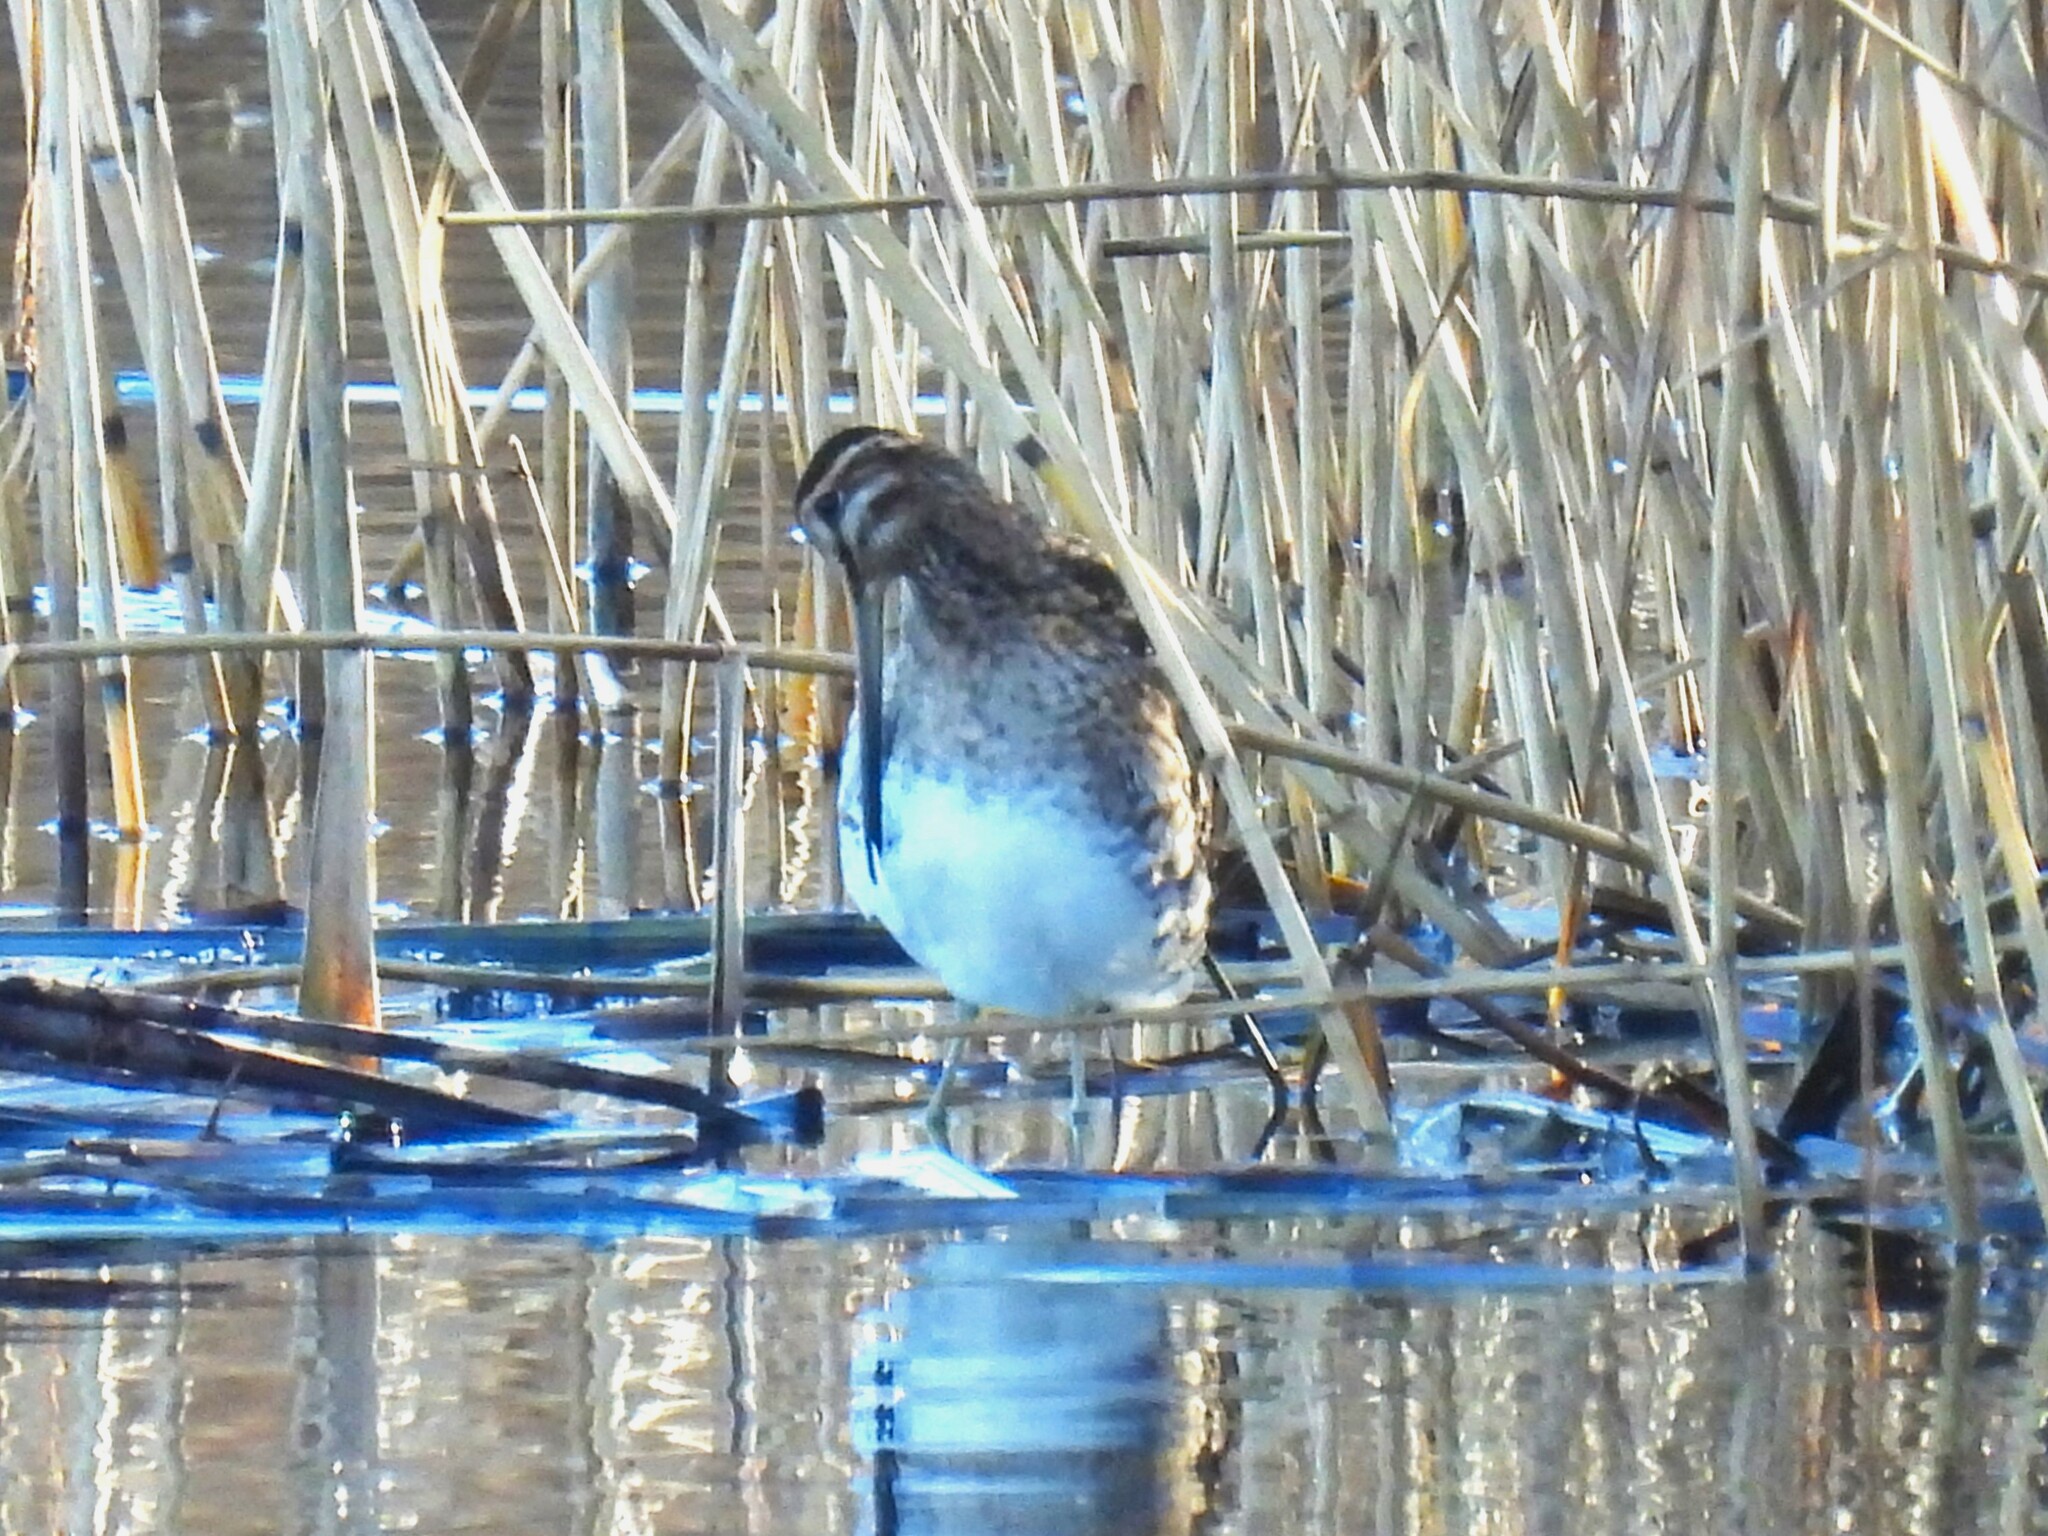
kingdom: Animalia
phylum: Chordata
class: Aves
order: Charadriiformes
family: Scolopacidae
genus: Gallinago
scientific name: Gallinago gallinago
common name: Common snipe
